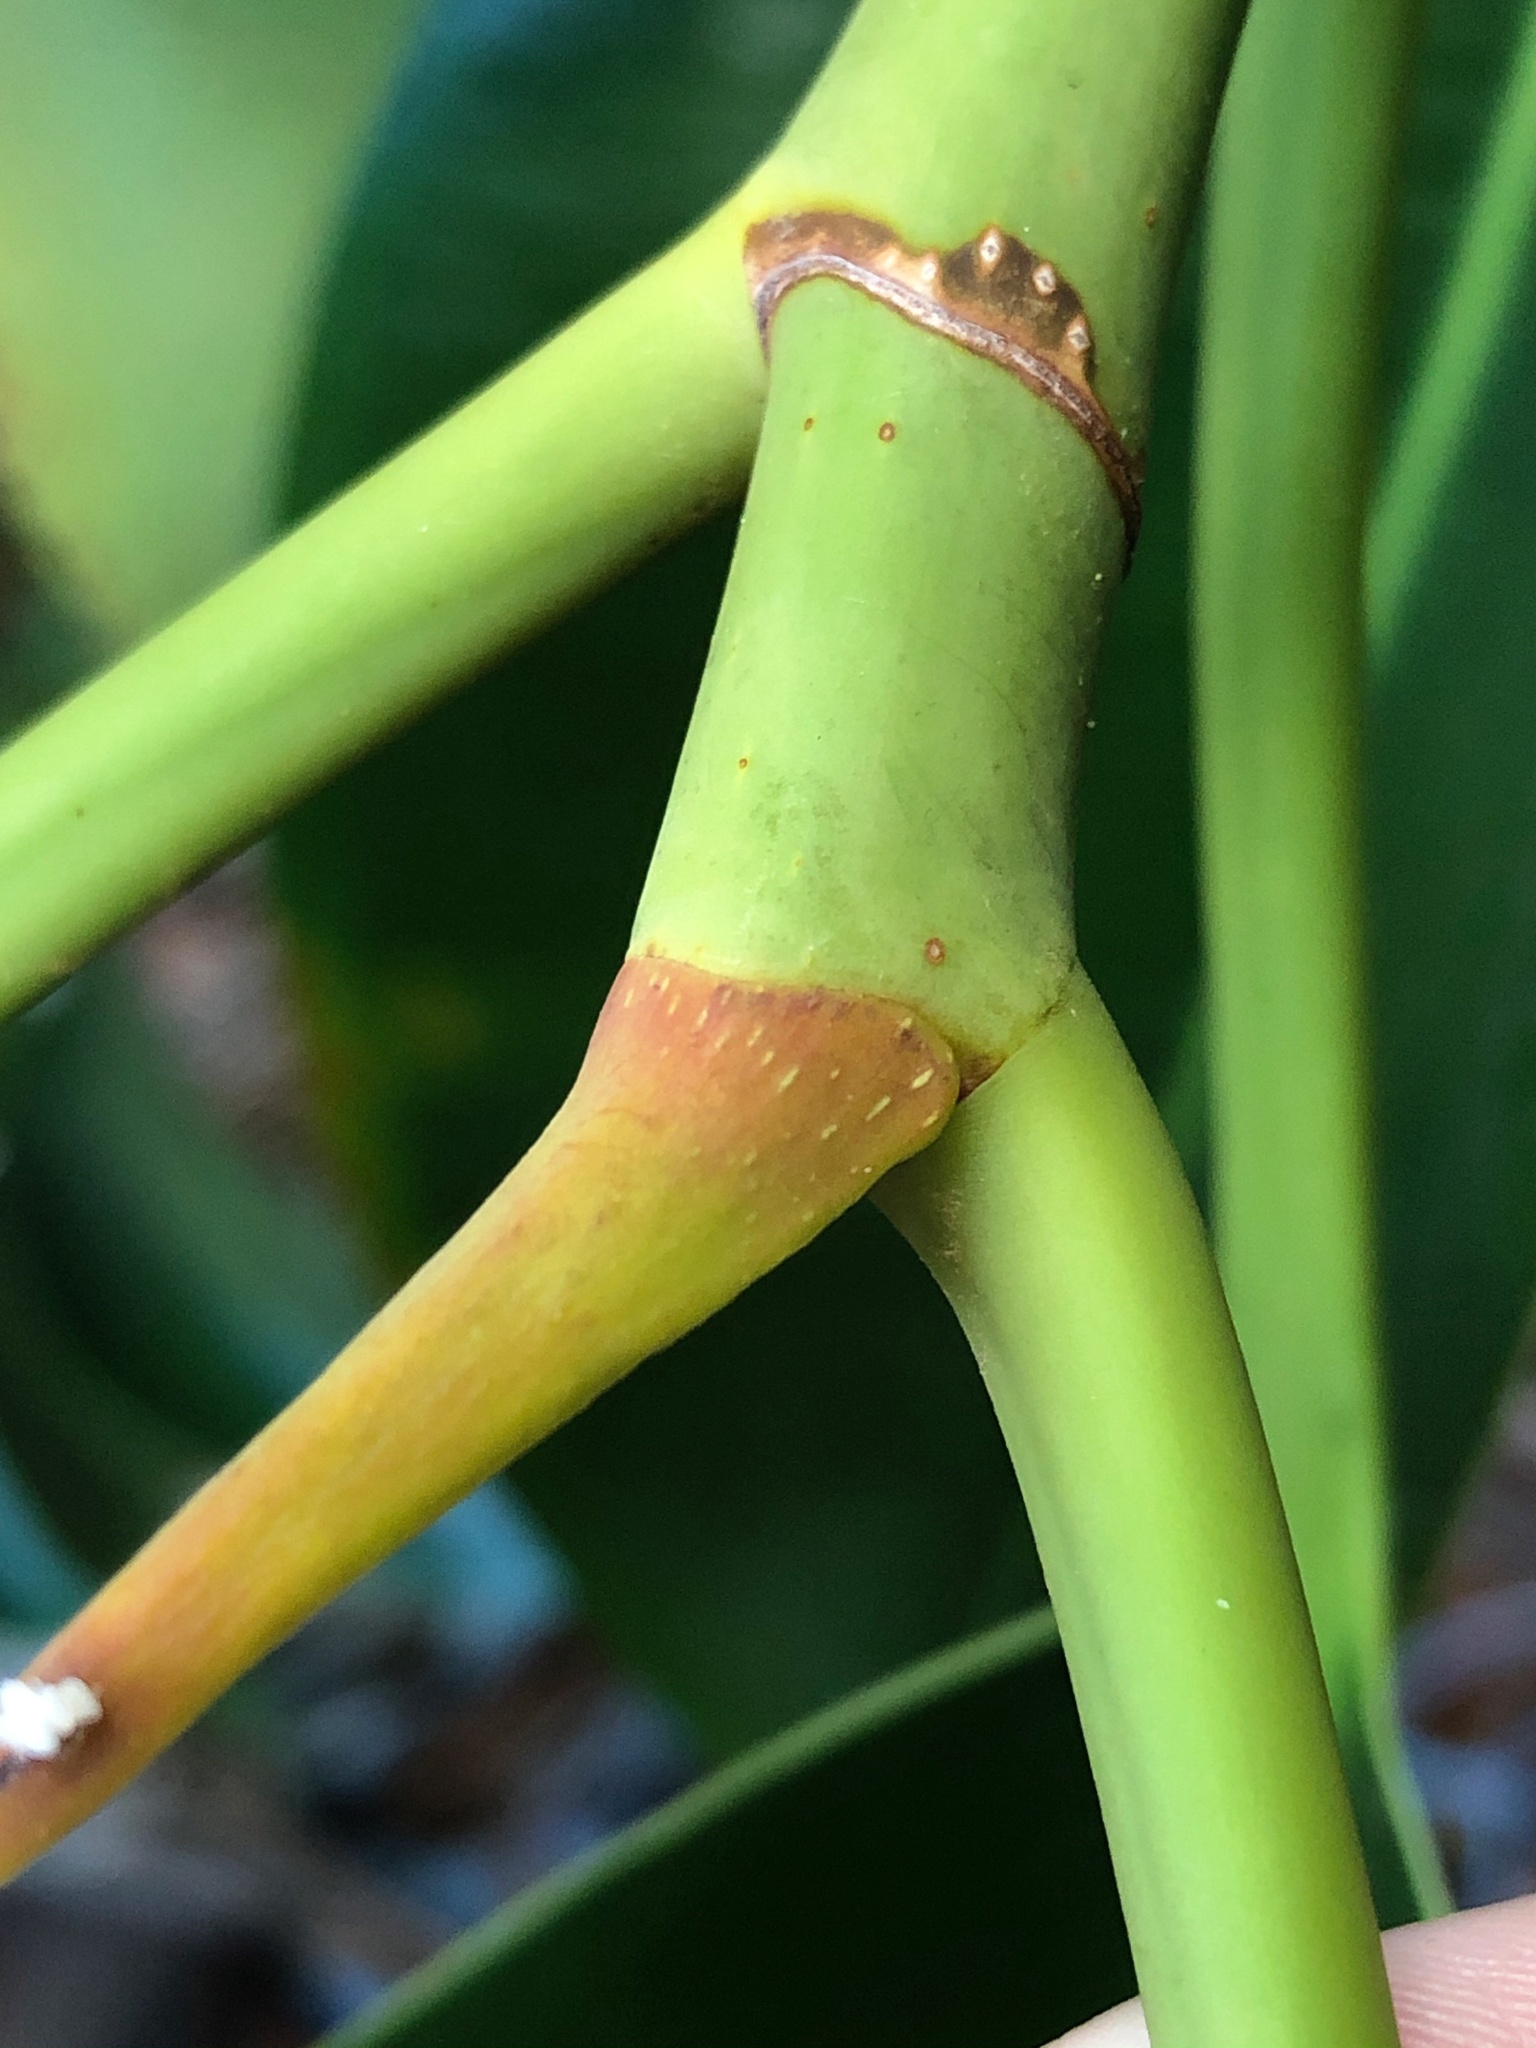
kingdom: Plantae
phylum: Tracheophyta
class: Magnoliopsida
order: Rosales
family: Moraceae
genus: Ficus
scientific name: Ficus macrophylla
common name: Moreton bay fig
